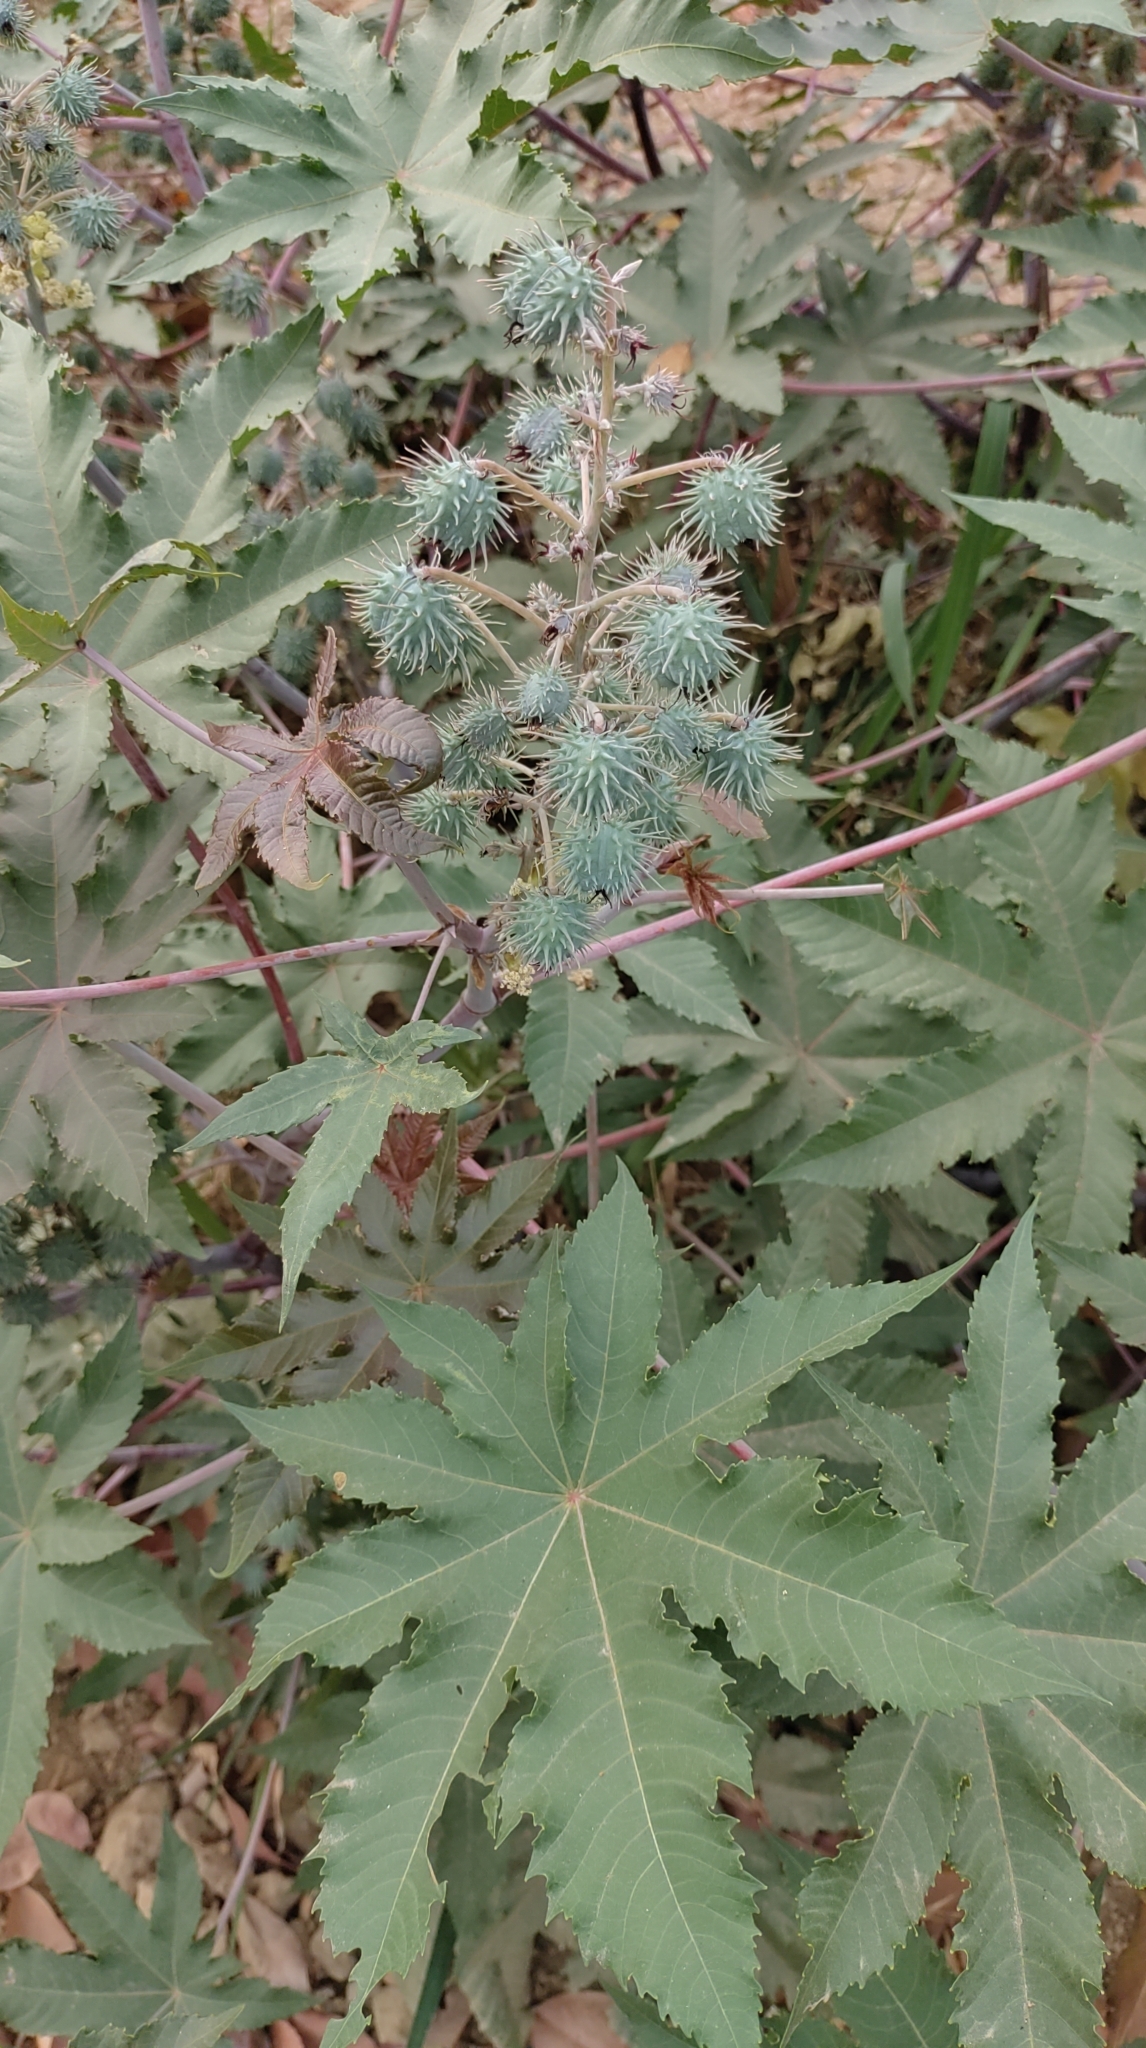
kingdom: Plantae
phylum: Tracheophyta
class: Magnoliopsida
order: Malpighiales
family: Euphorbiaceae
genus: Ricinus
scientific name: Ricinus communis
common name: Castor-oil-plant
